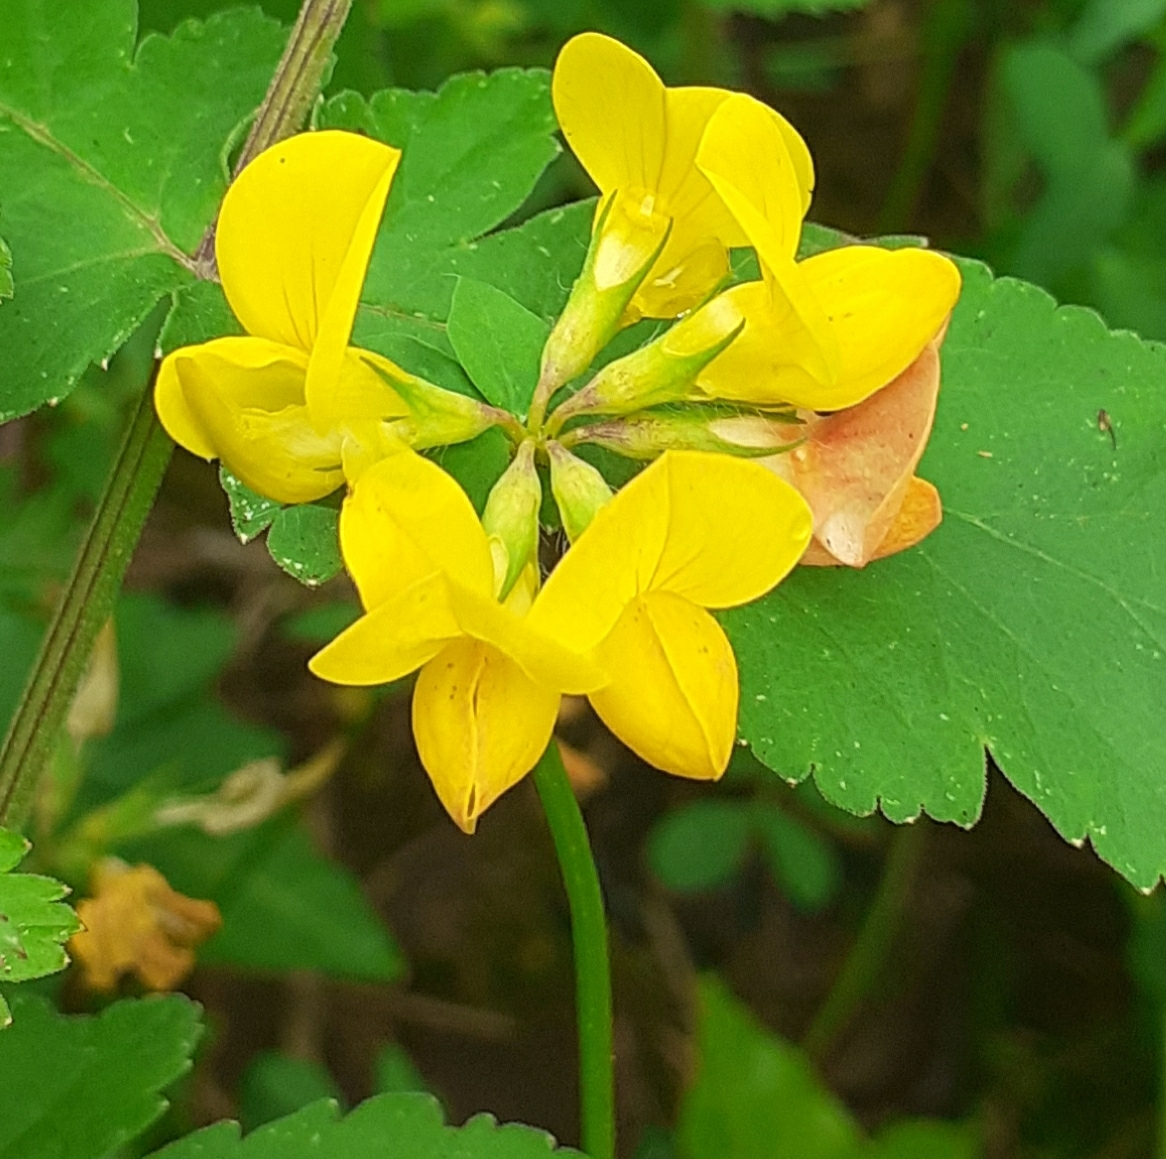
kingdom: Plantae
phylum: Tracheophyta
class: Magnoliopsida
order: Fabales
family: Fabaceae
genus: Lotus
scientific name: Lotus corniculatus
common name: Common bird's-foot-trefoil
